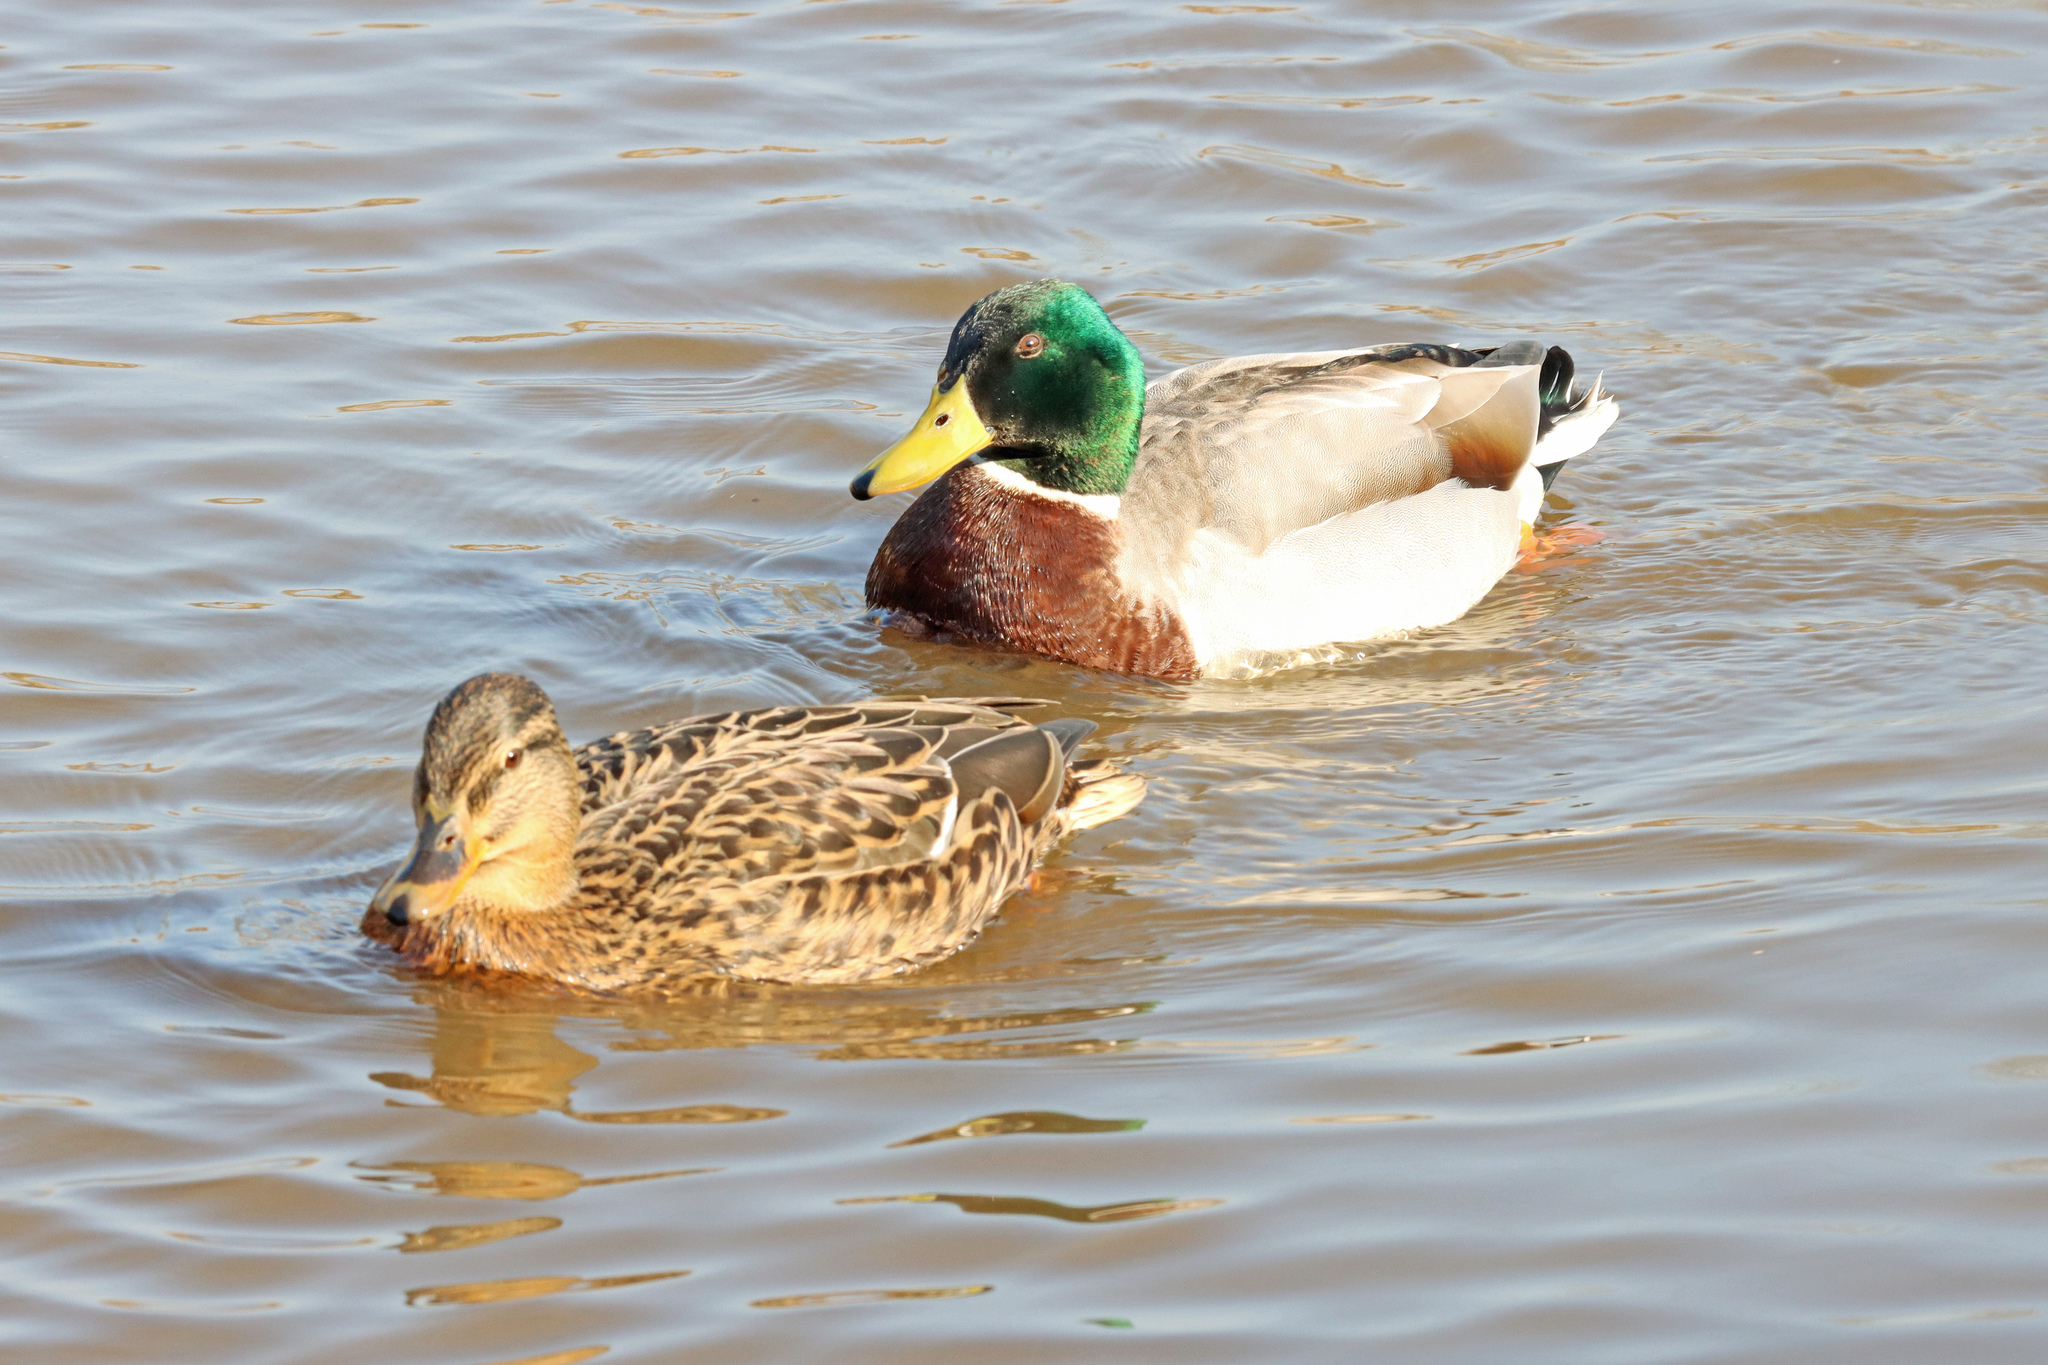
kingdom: Animalia
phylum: Chordata
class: Aves
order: Anseriformes
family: Anatidae
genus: Anas
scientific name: Anas platyrhynchos
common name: Mallard
